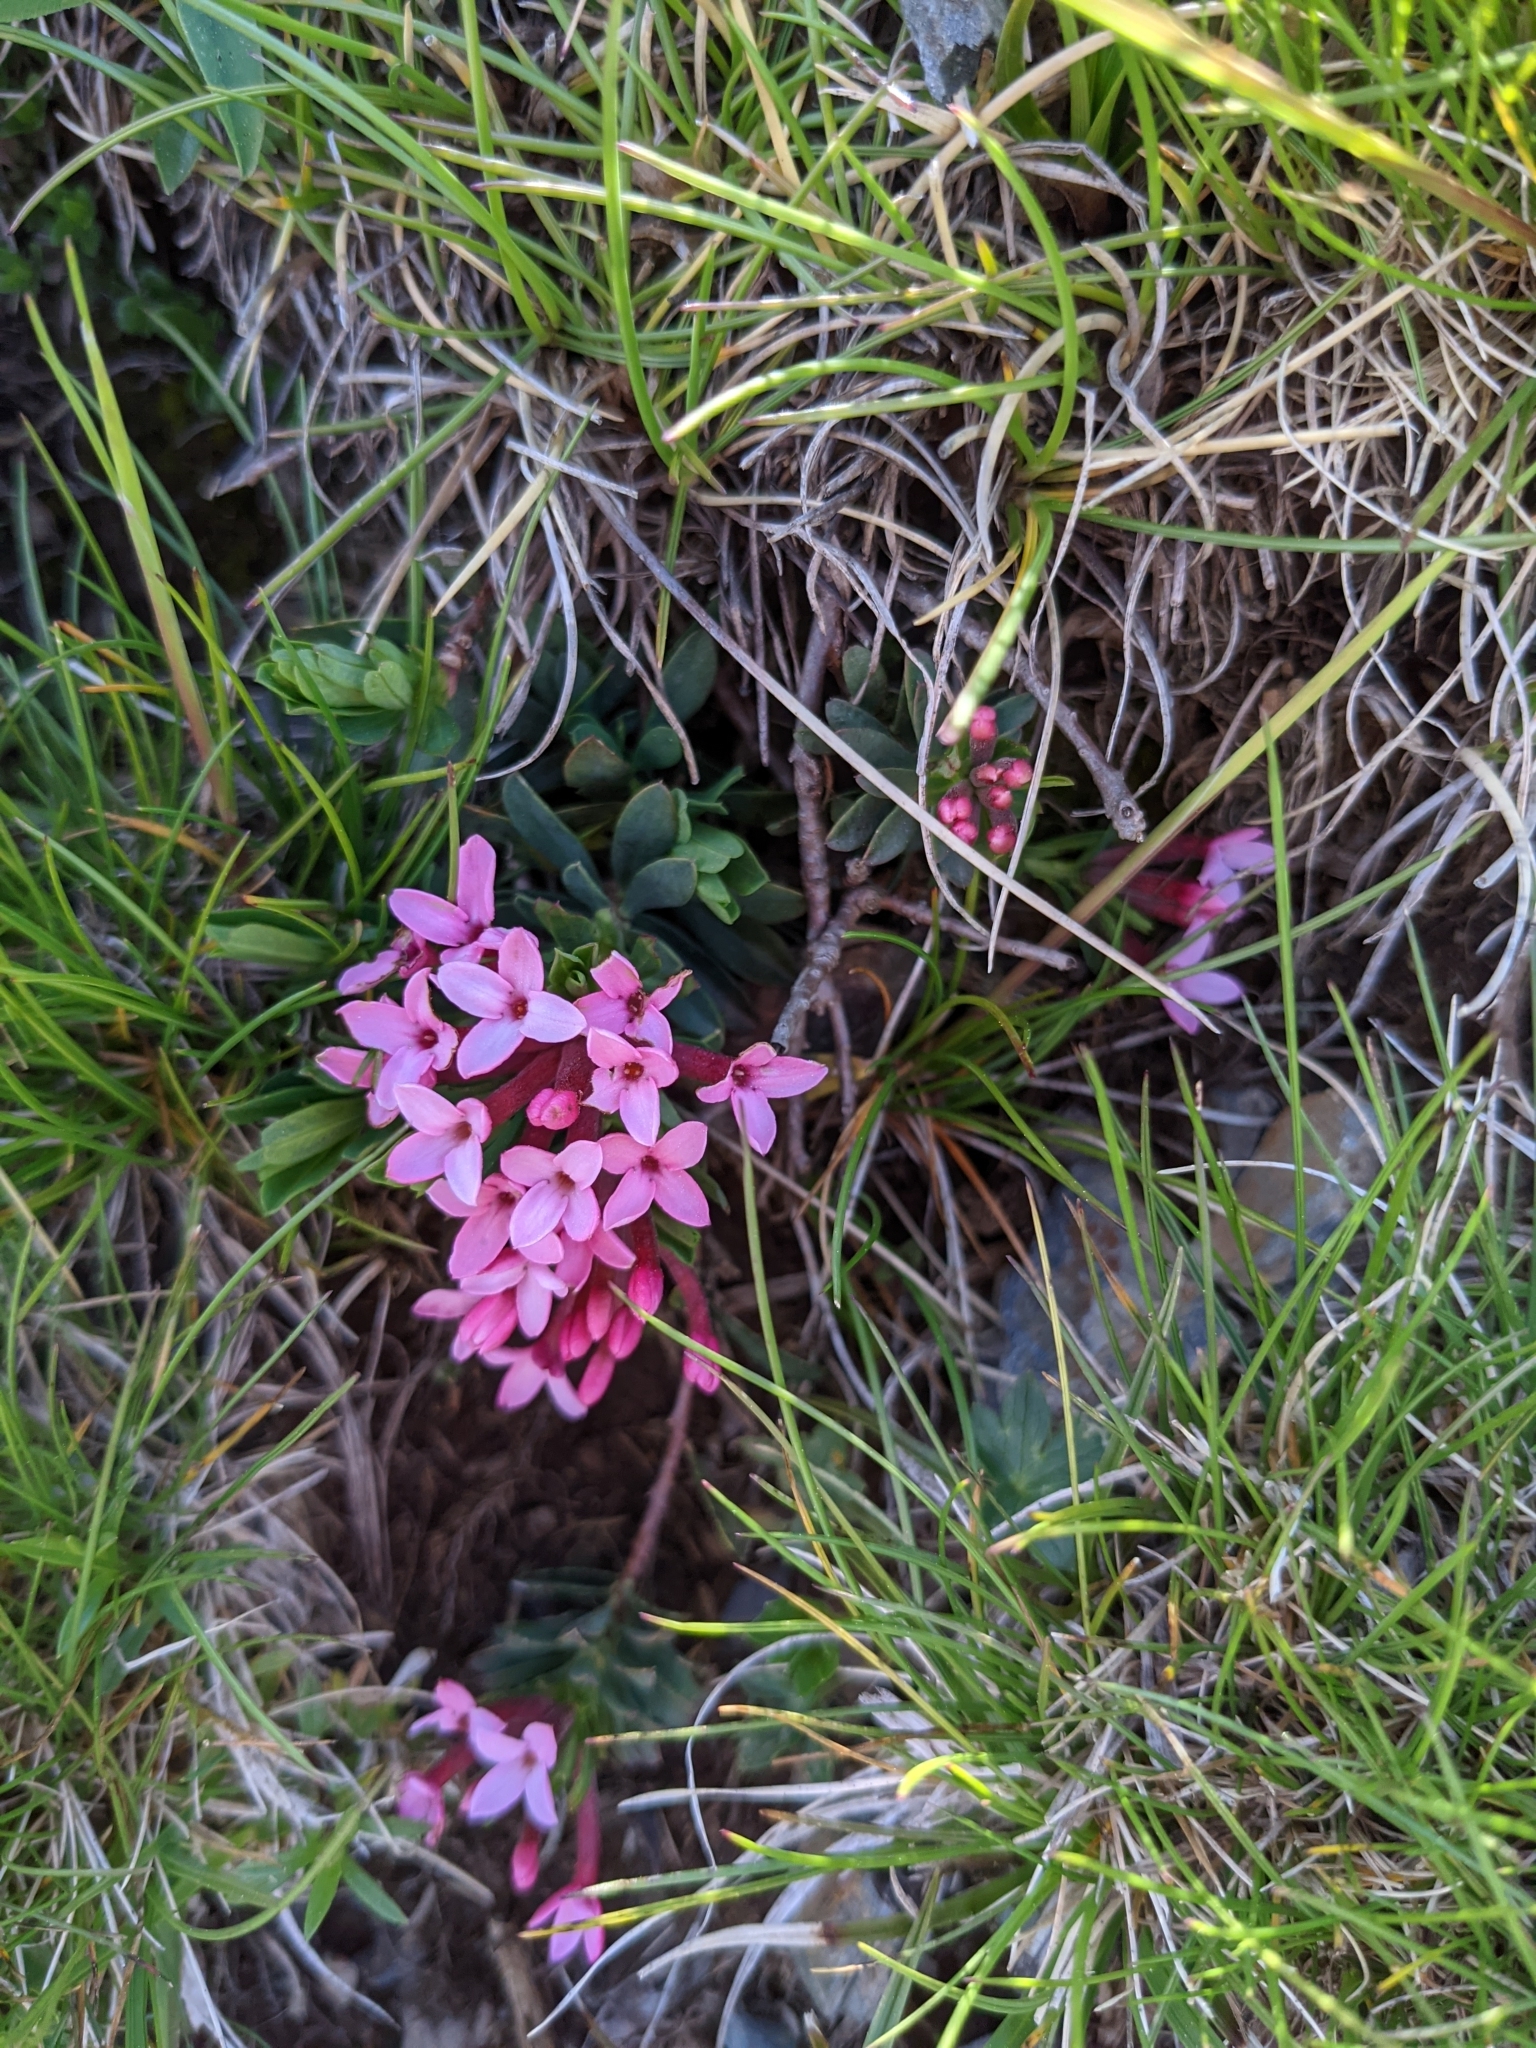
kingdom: Plantae
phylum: Tracheophyta
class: Magnoliopsida
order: Malvales
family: Thymelaeaceae
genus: Daphne
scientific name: Daphne cneorum
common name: Garland-flower
